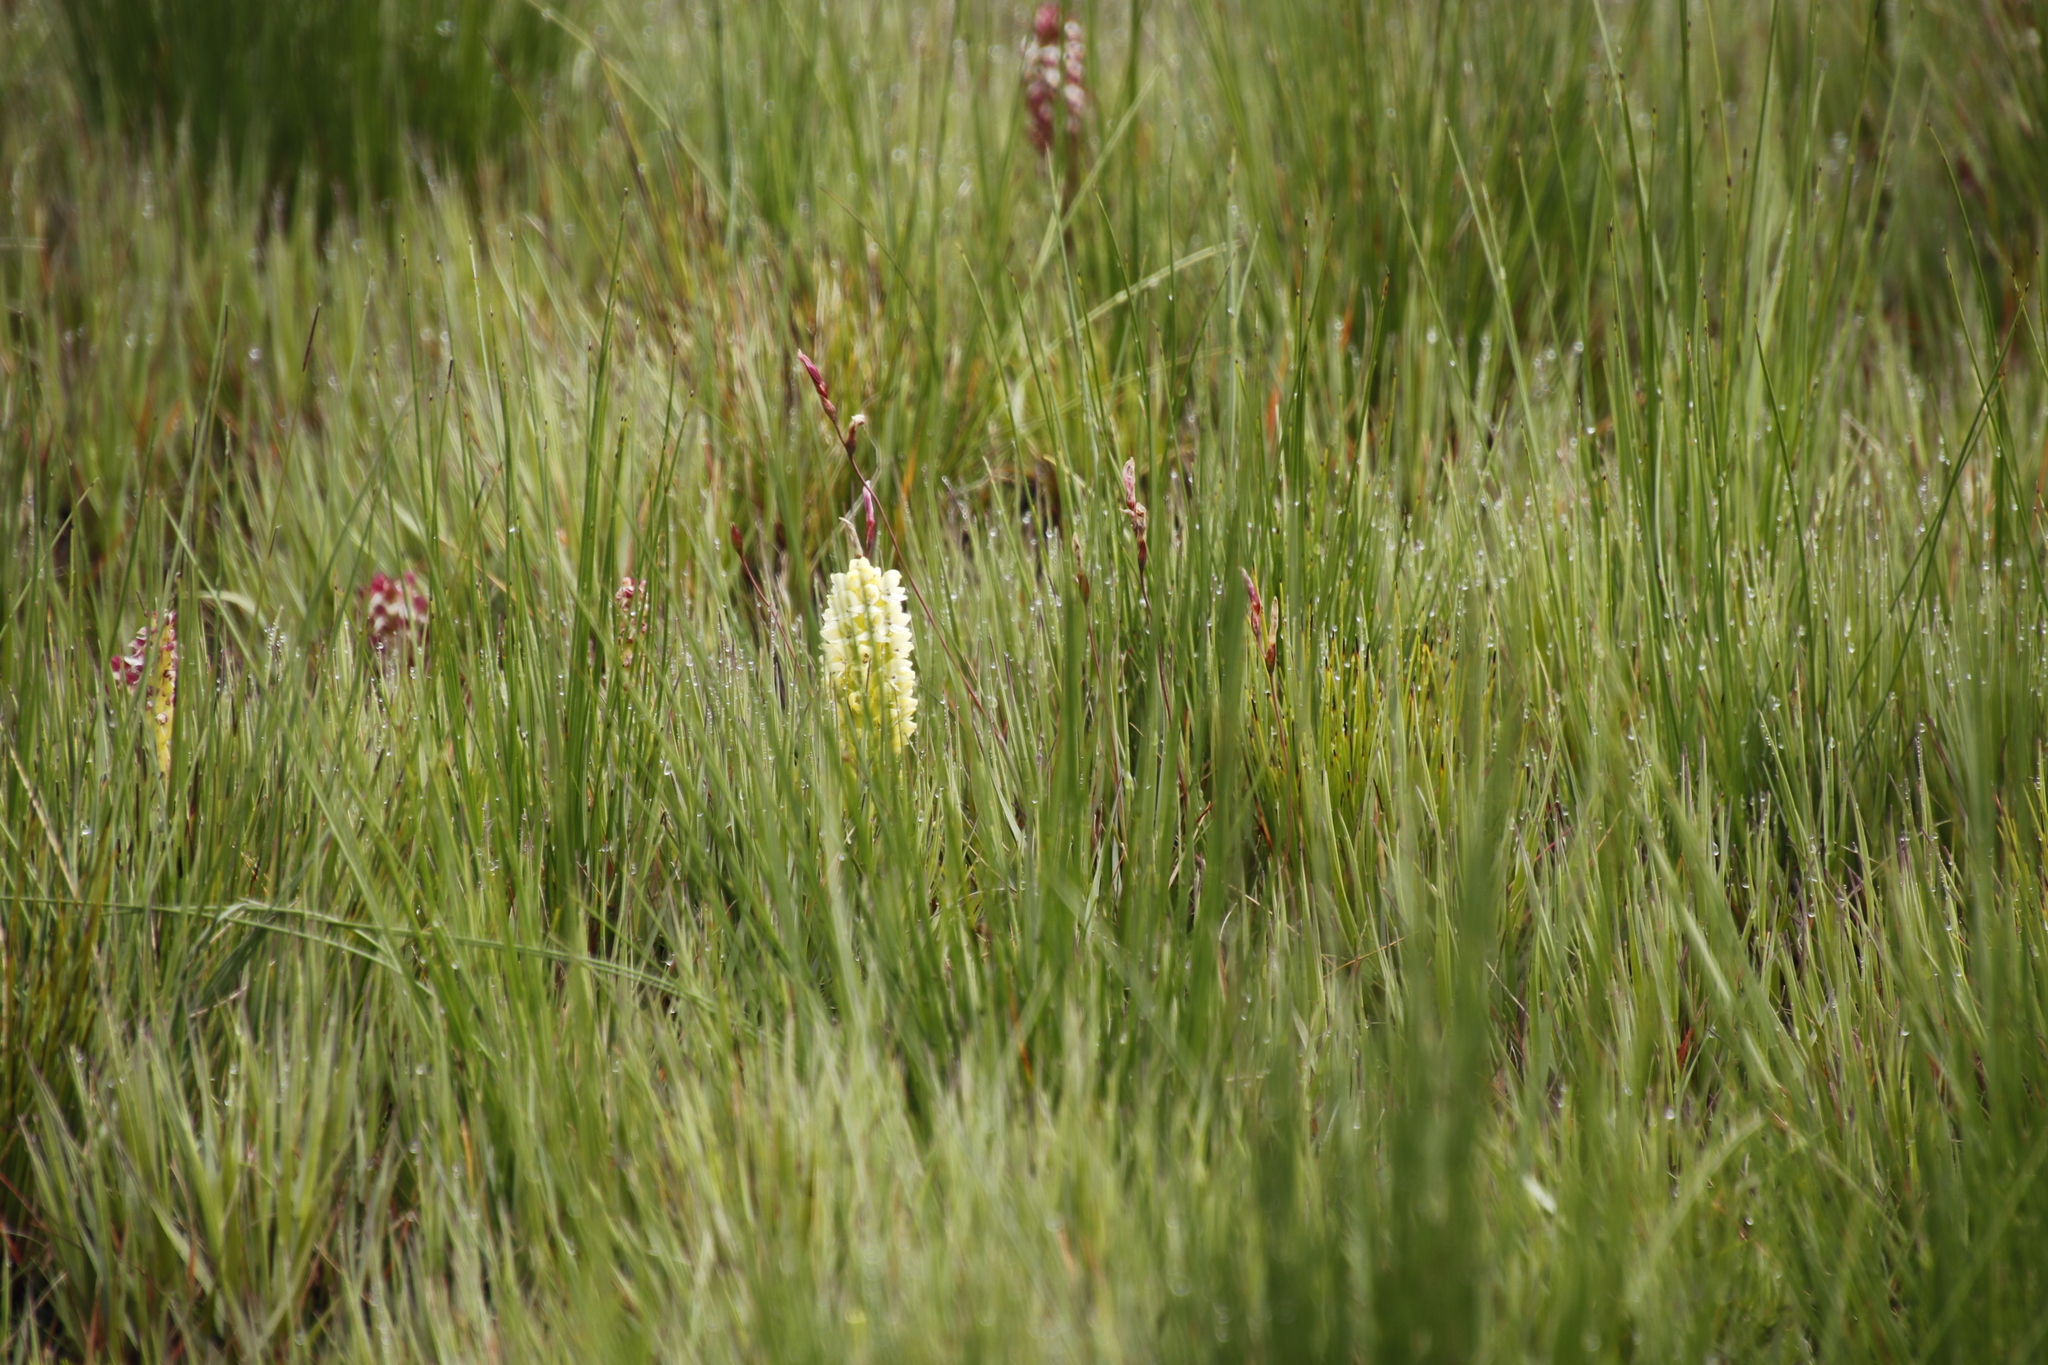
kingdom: Plantae
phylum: Tracheophyta
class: Liliopsida
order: Asparagales
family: Orchidaceae
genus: Disa
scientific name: Disa albomagentea
